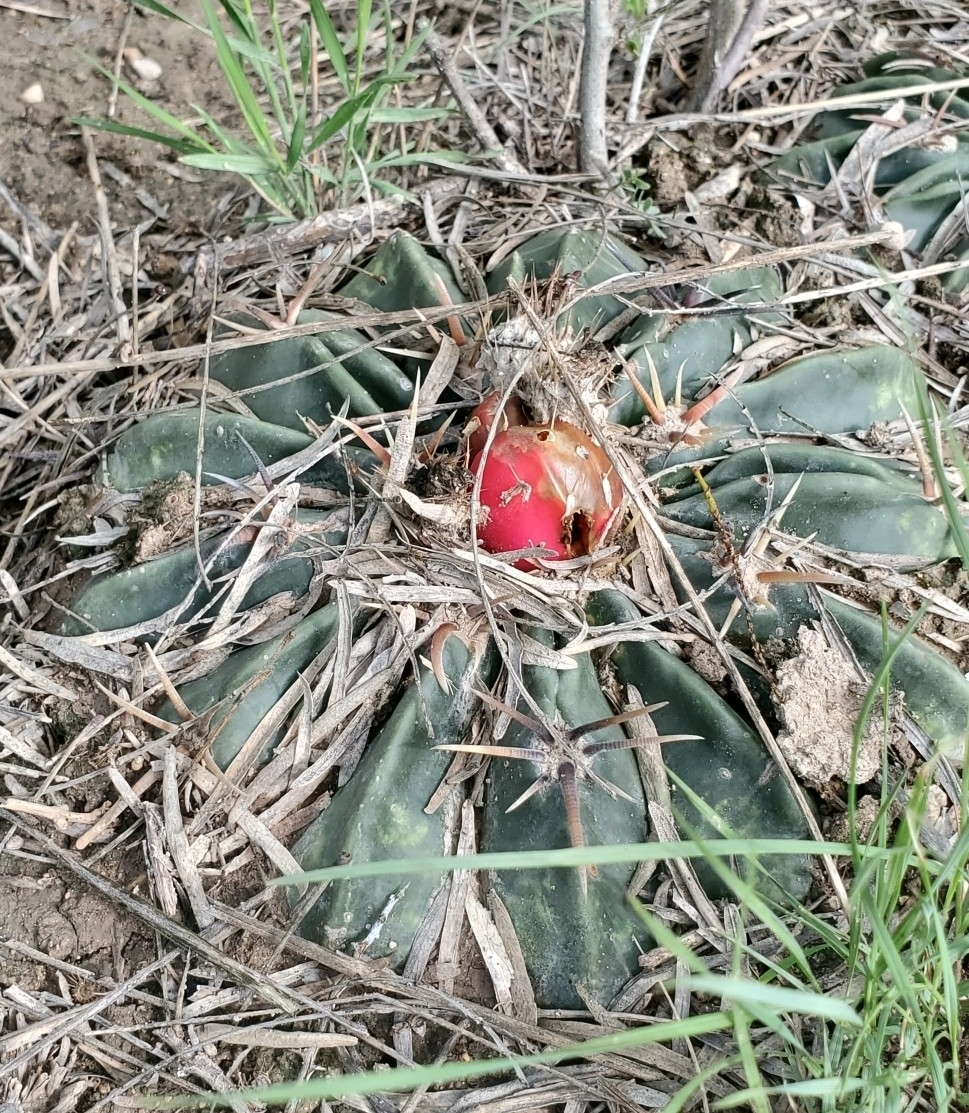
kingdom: Plantae
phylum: Tracheophyta
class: Magnoliopsida
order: Caryophyllales
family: Cactaceae
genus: Echinocactus
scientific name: Echinocactus texensis
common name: Devil's pincushion
